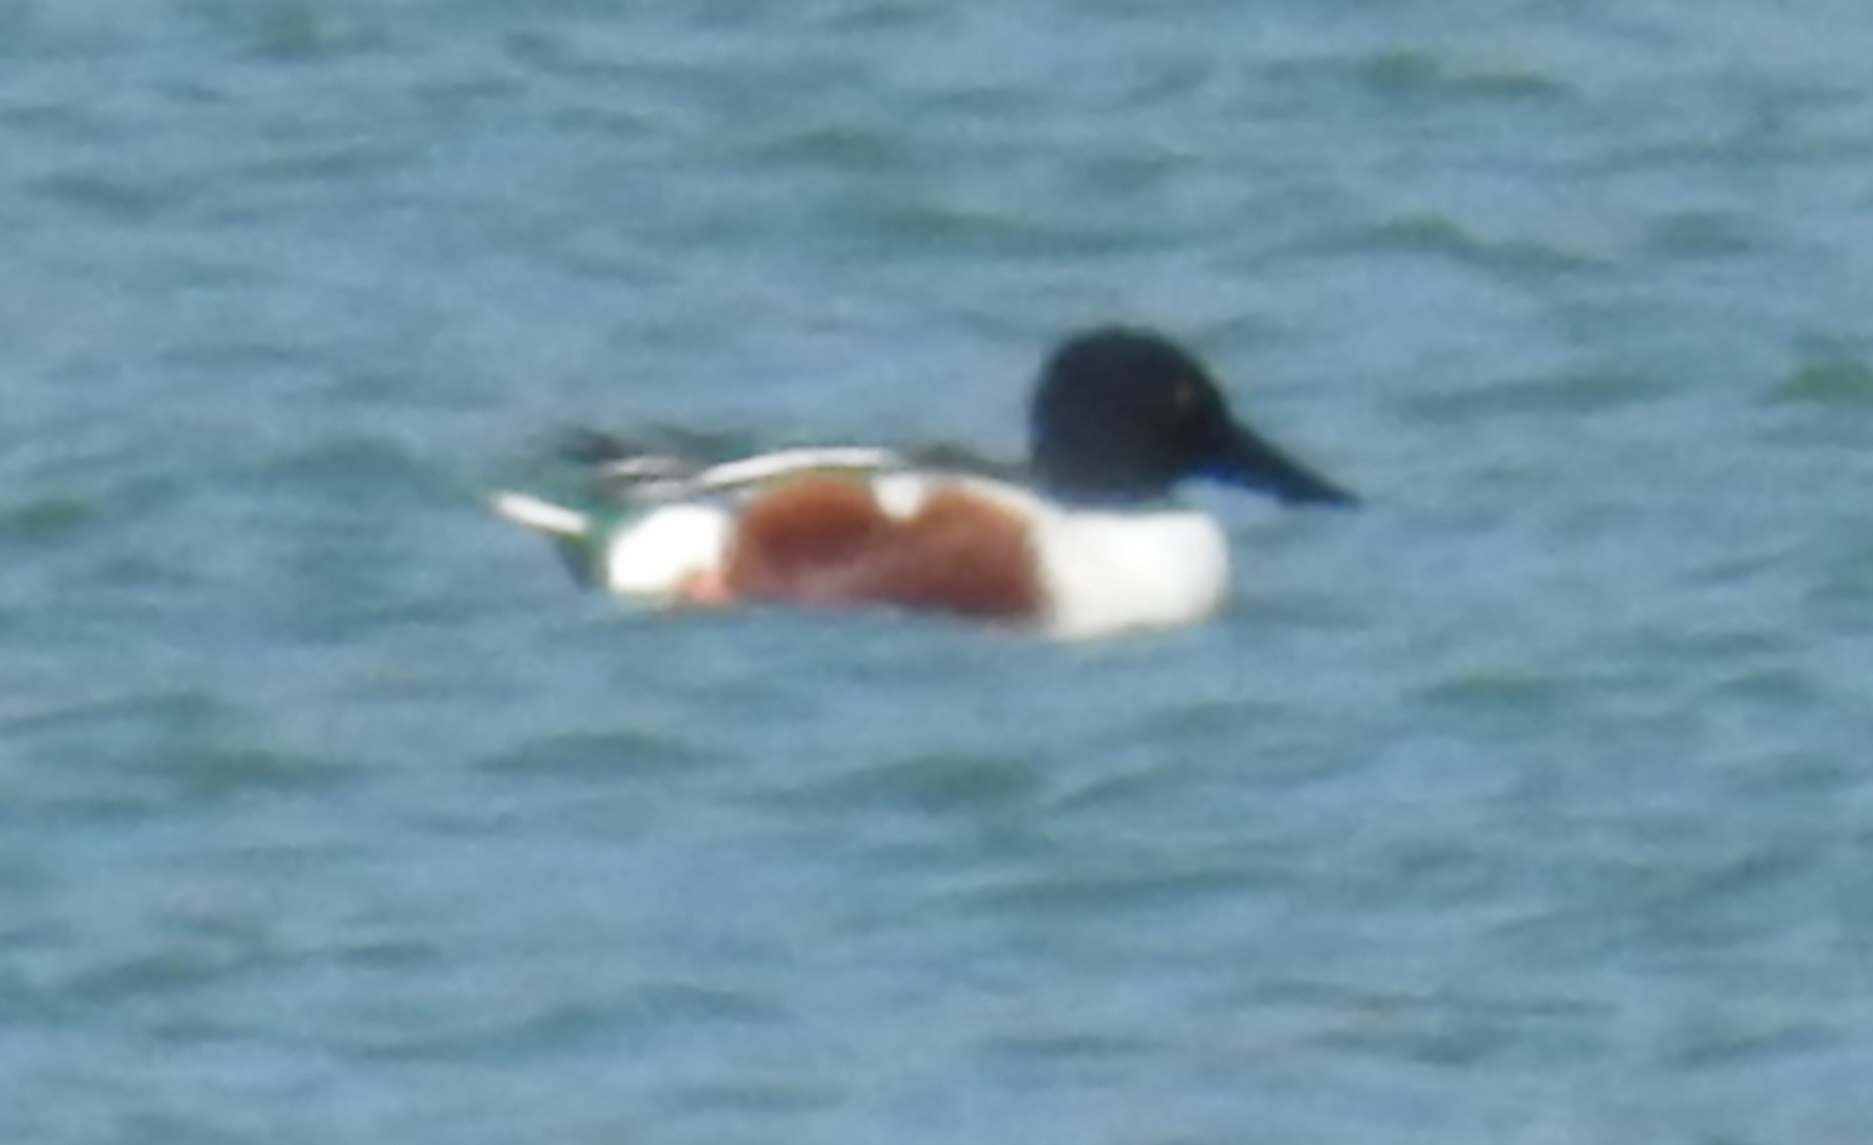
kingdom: Animalia
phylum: Chordata
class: Aves
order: Anseriformes
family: Anatidae
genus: Spatula
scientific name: Spatula clypeata
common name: Northern shoveler
